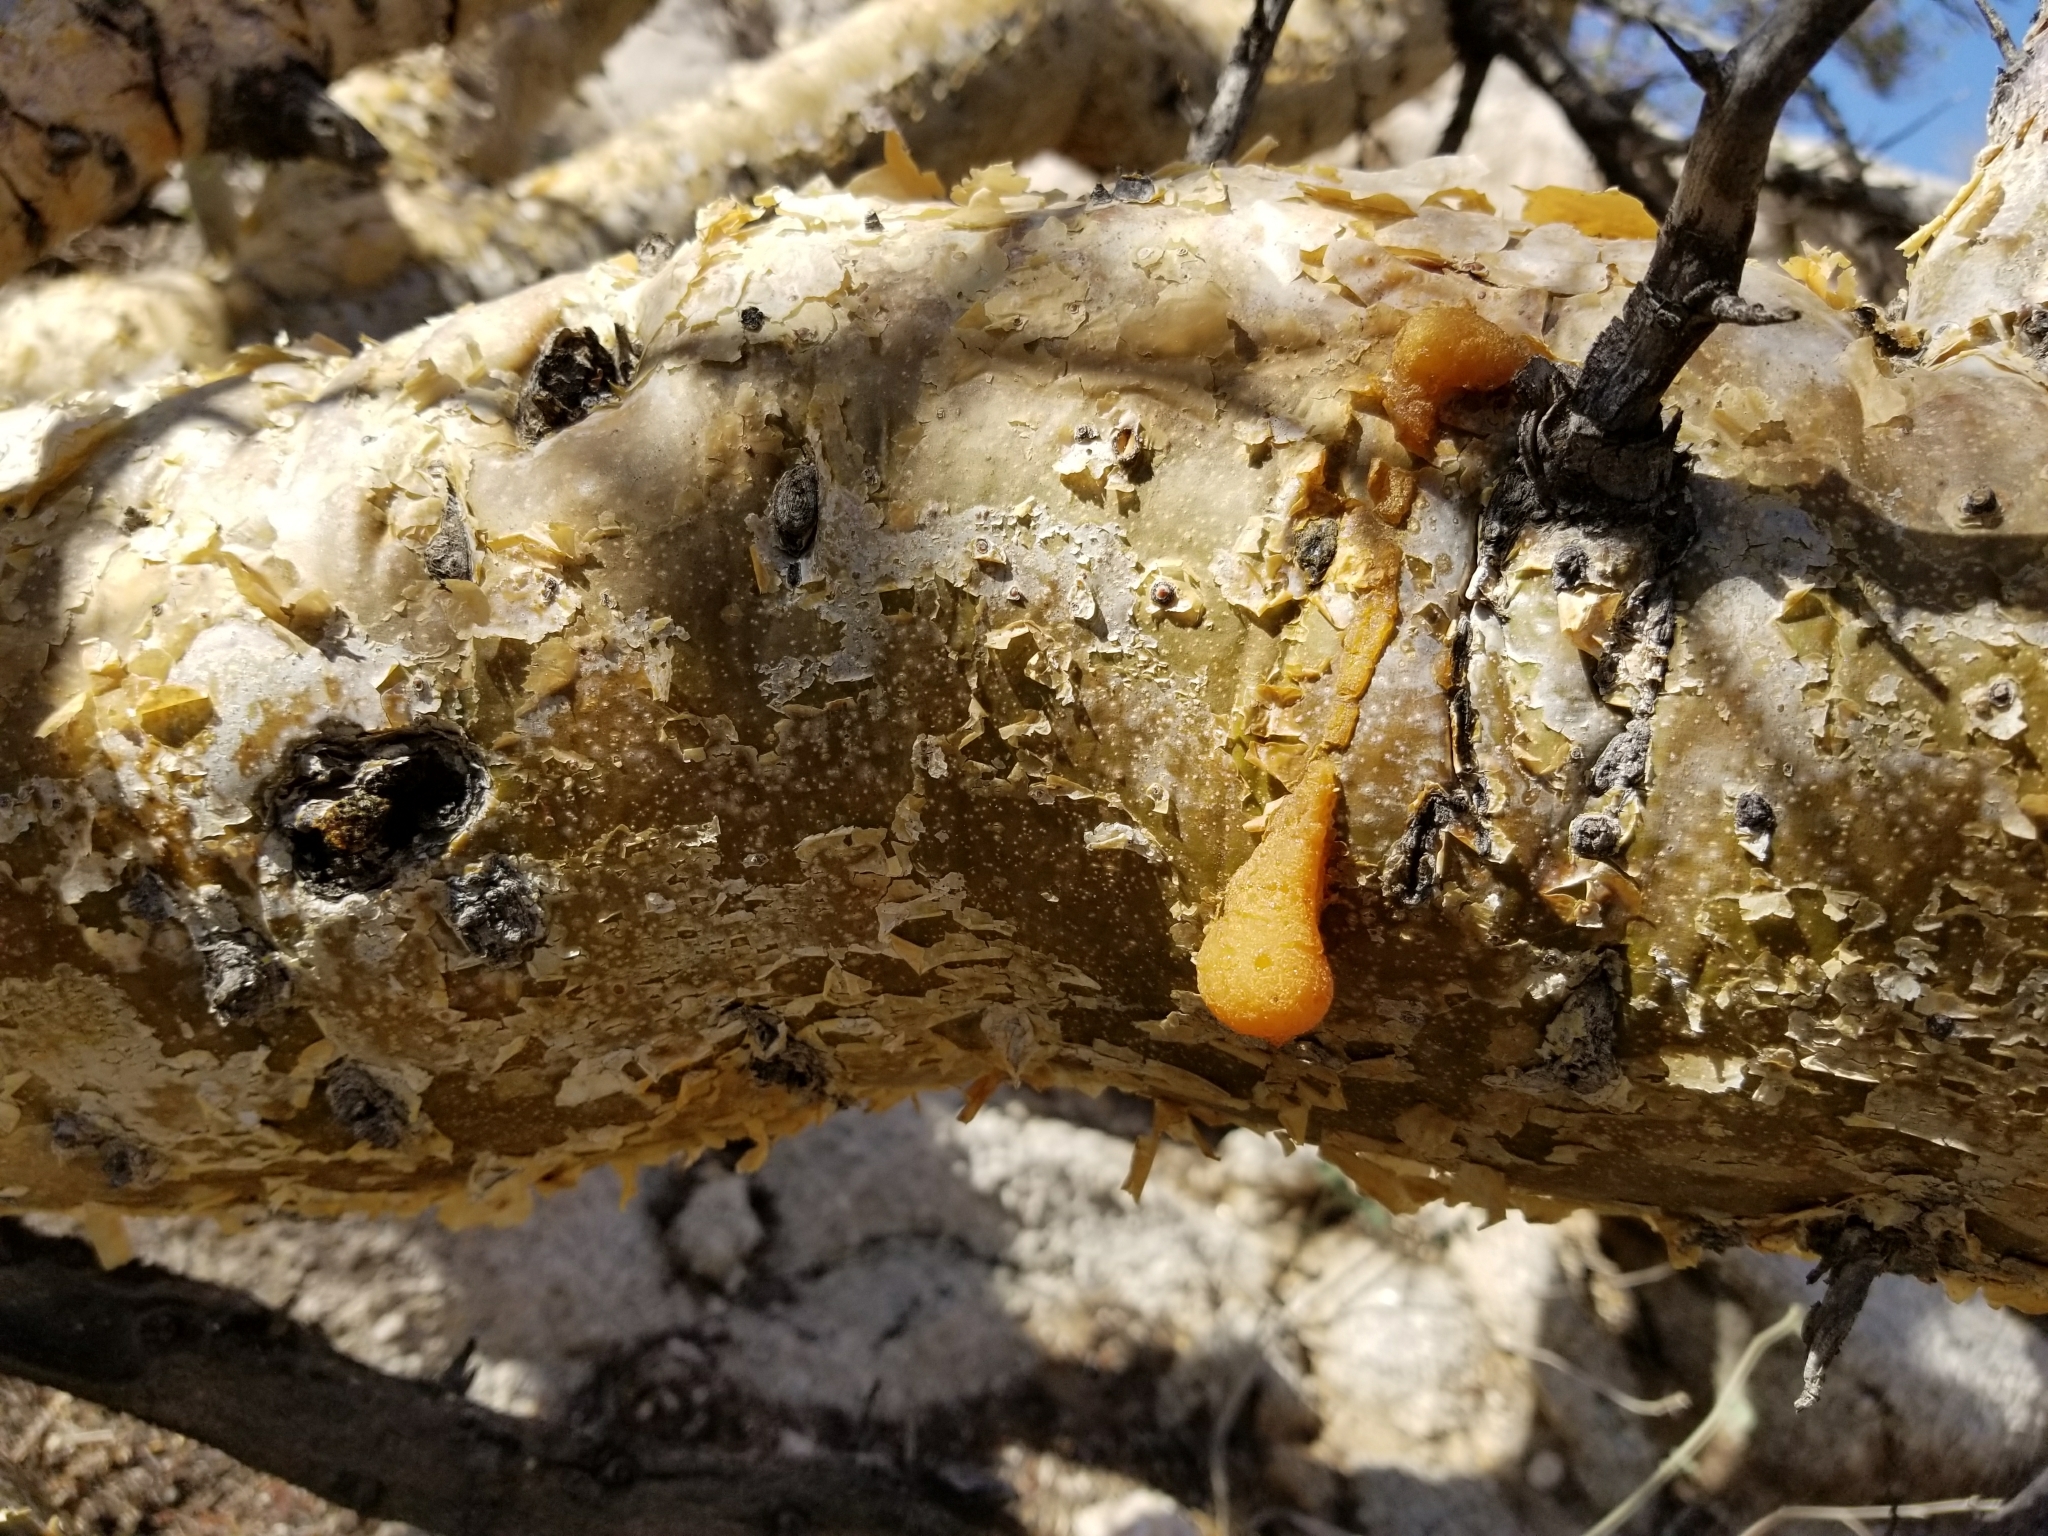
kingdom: Plantae
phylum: Tracheophyta
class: Magnoliopsida
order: Sapindales
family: Burseraceae
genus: Bursera
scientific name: Bursera microphylla
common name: Elephant tree
